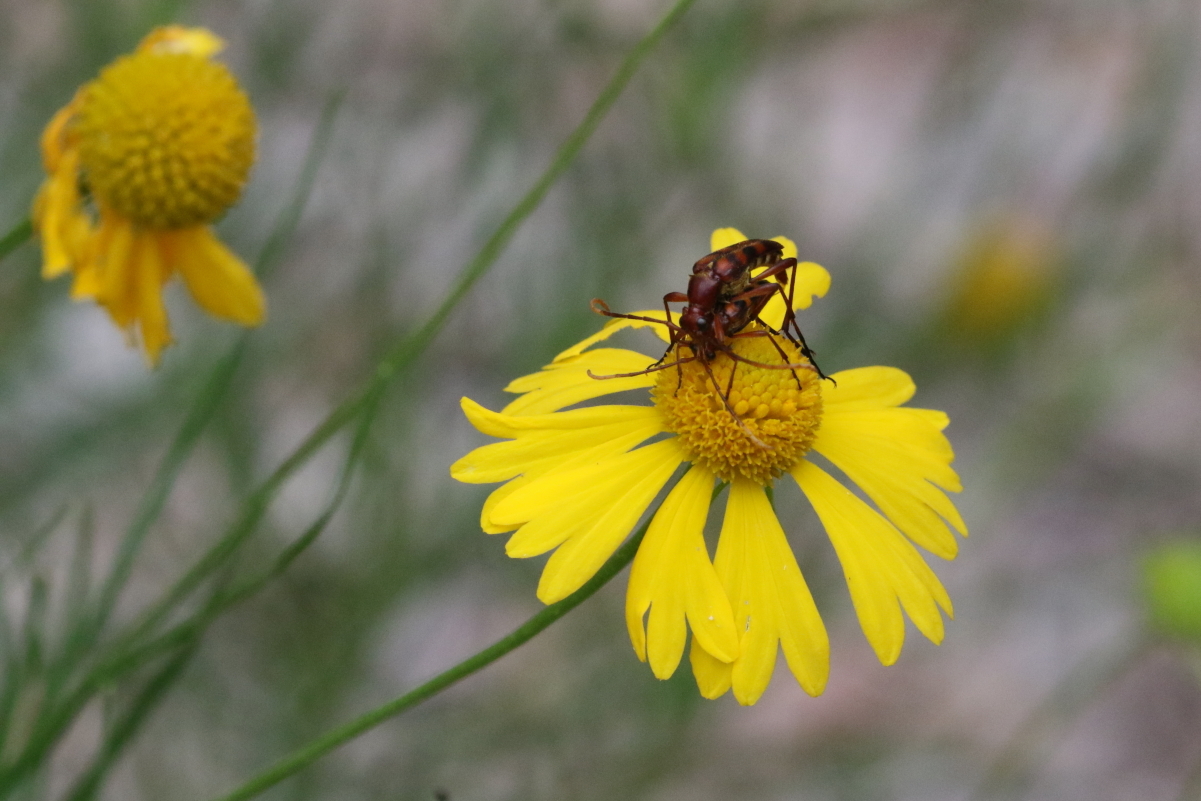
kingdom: Animalia
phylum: Arthropoda
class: Insecta
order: Coleoptera
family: Cerambycidae
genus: Strangalia
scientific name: Strangalia sexnotata
